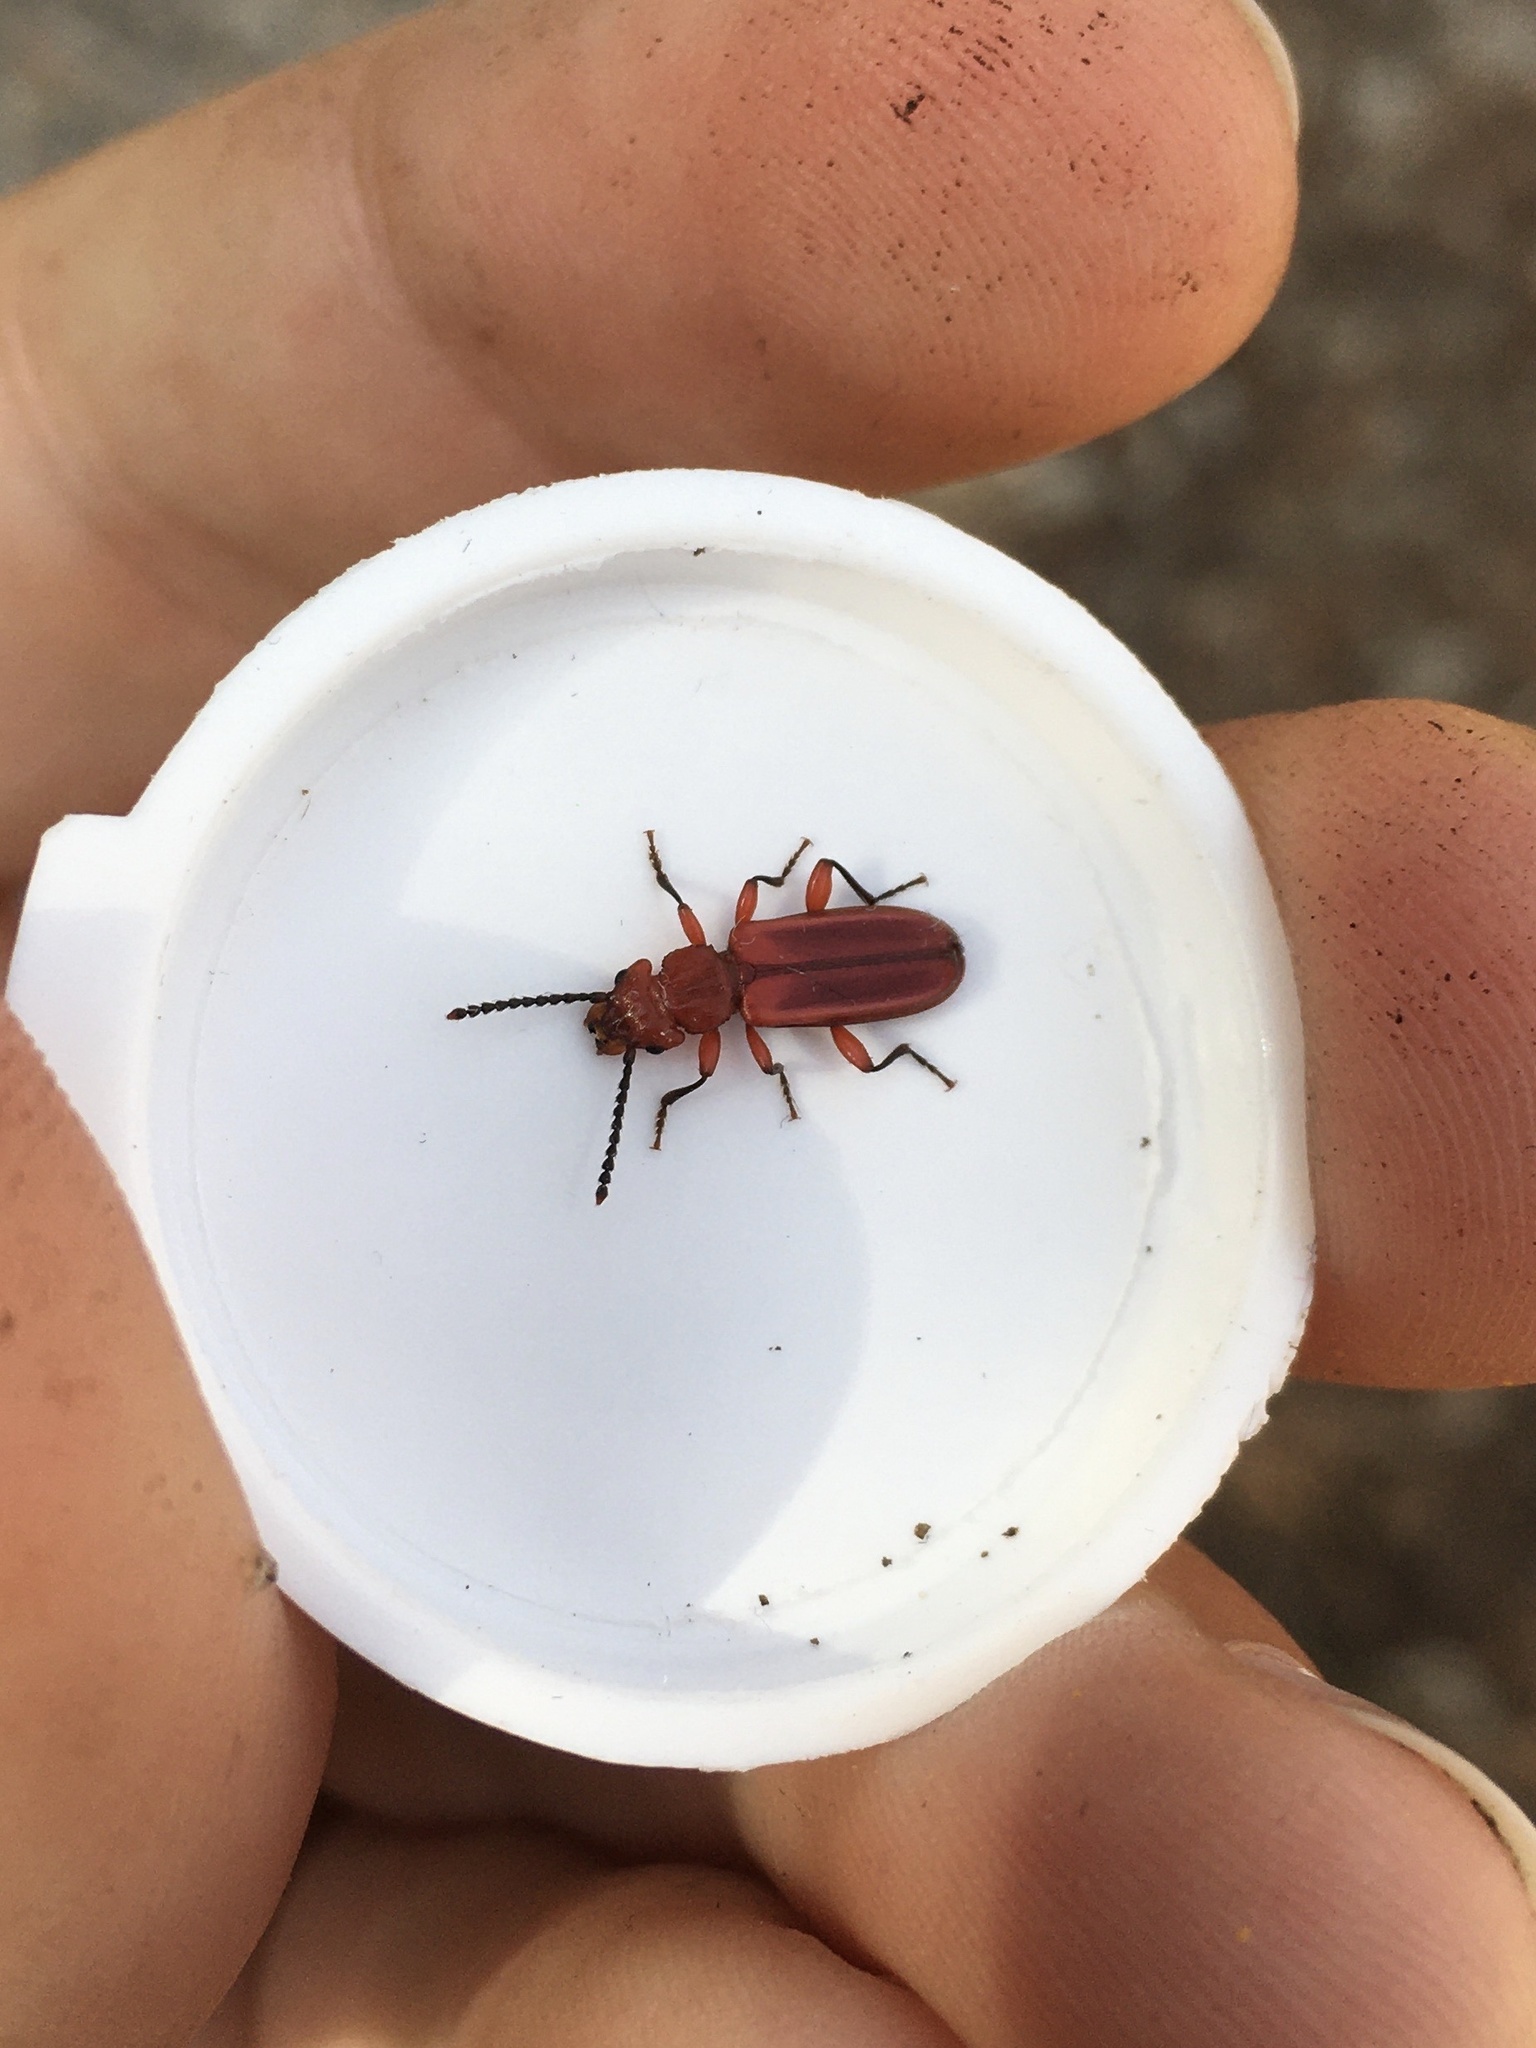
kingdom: Animalia
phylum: Arthropoda
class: Insecta
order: Coleoptera
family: Cucujidae
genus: Cucujus
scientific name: Cucujus clavipes
